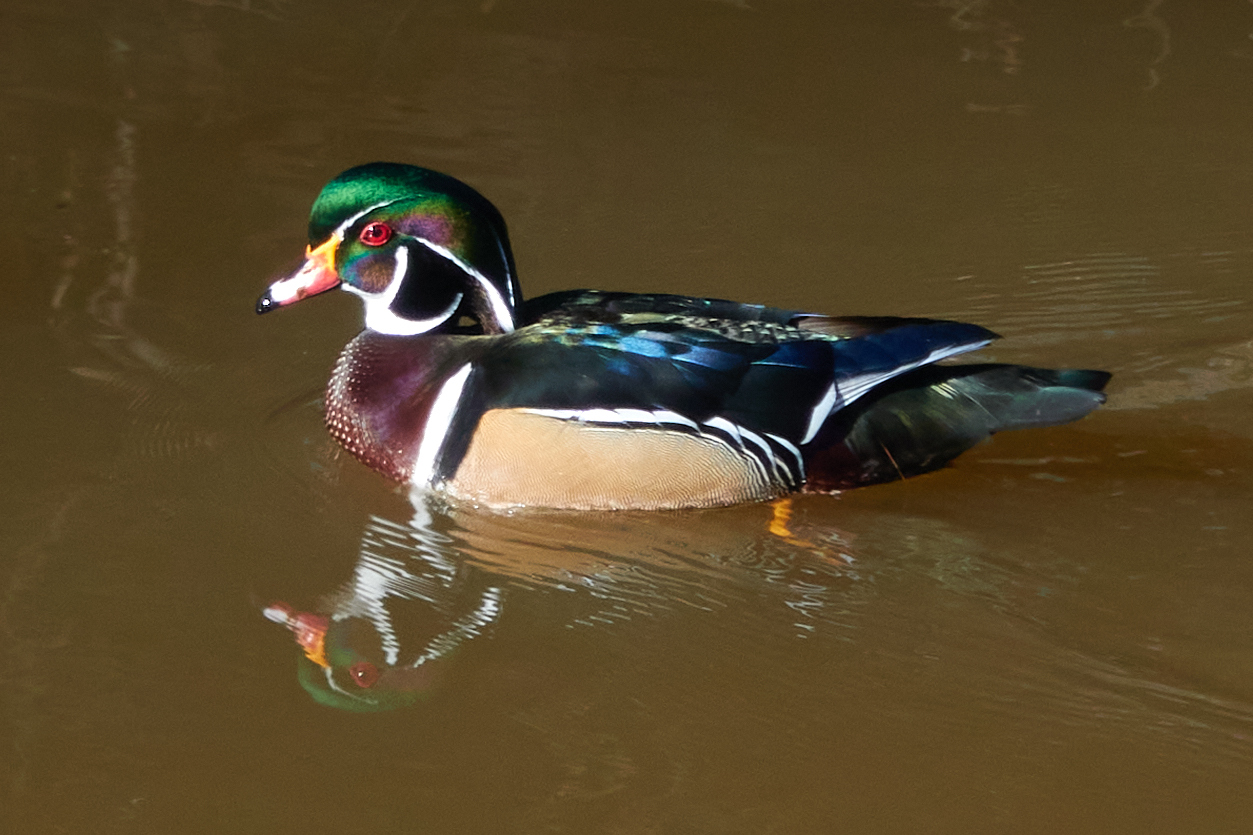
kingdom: Animalia
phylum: Chordata
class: Aves
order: Anseriformes
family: Anatidae
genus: Aix
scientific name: Aix sponsa
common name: Wood duck
